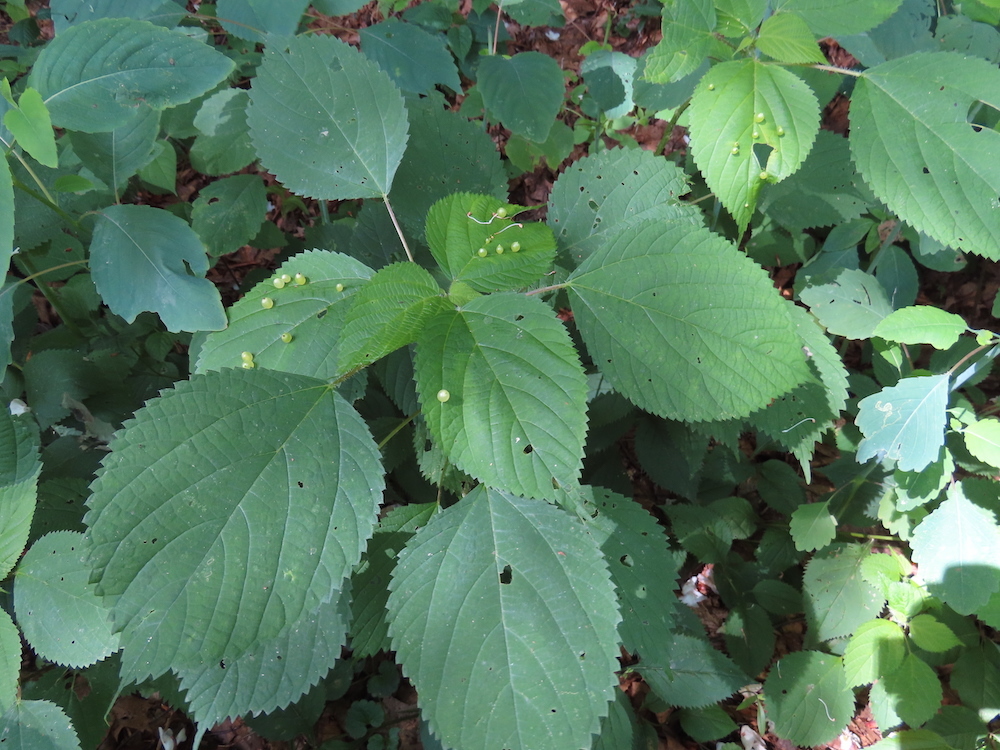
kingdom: Animalia
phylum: Arthropoda
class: Insecta
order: Diptera
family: Cecidomyiidae
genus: Dasineura
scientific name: Dasineura investita
